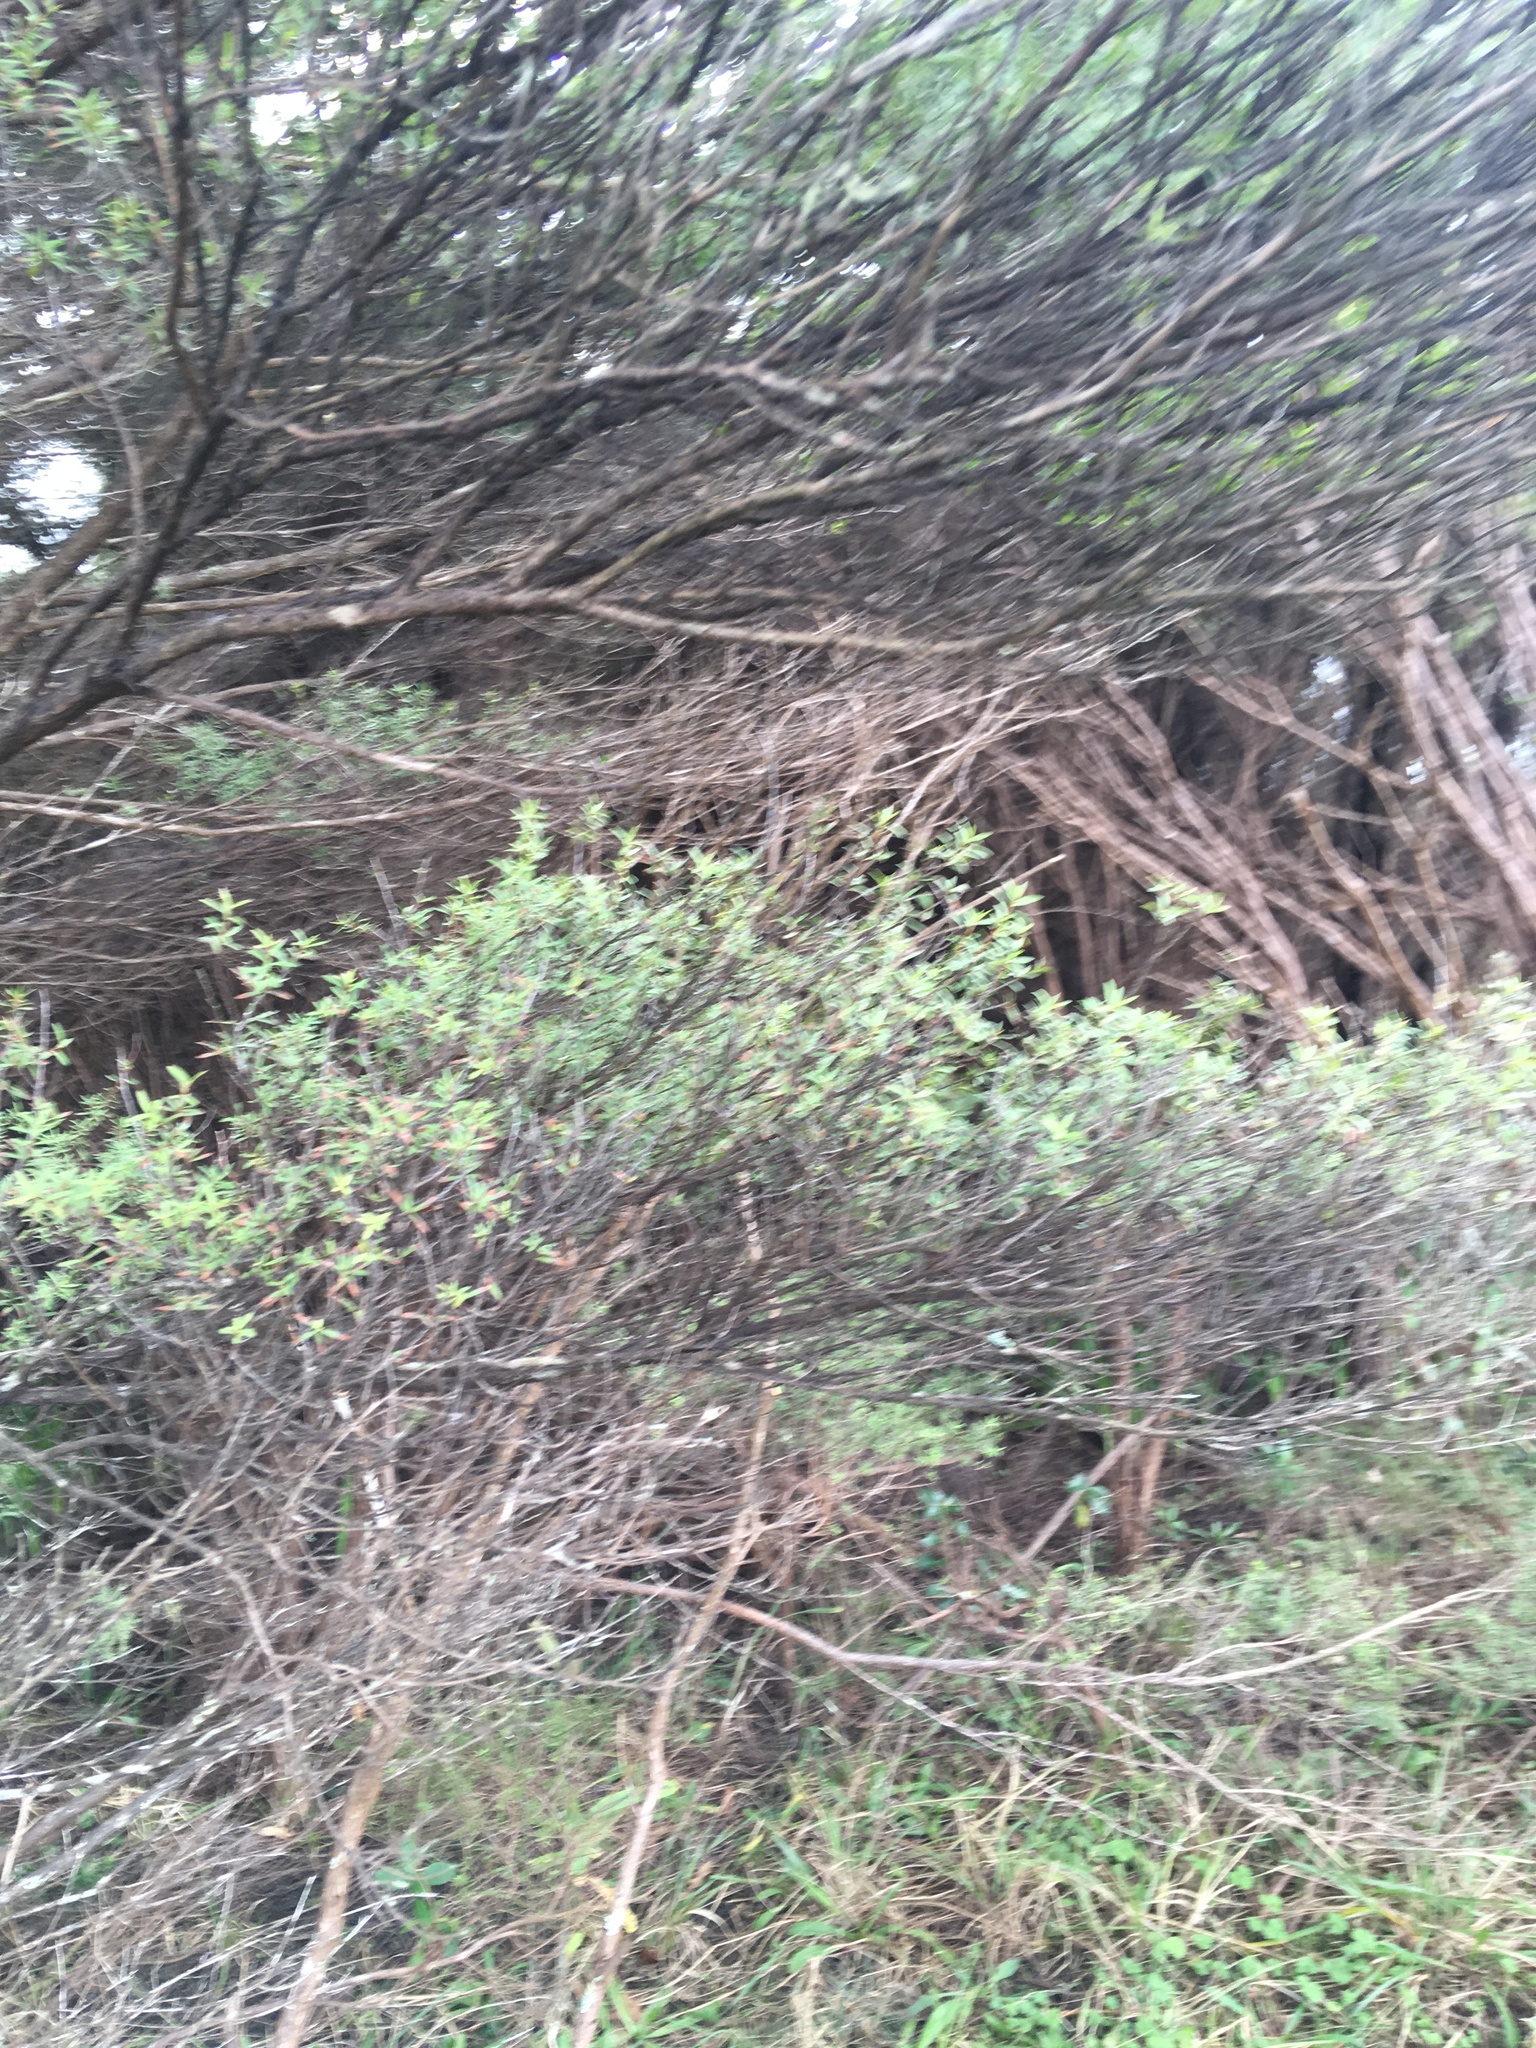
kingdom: Plantae
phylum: Tracheophyta
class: Magnoliopsida
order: Myrtales
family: Myrtaceae
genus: Leptospermum
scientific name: Leptospermum scoparium
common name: Broom tea-tree
